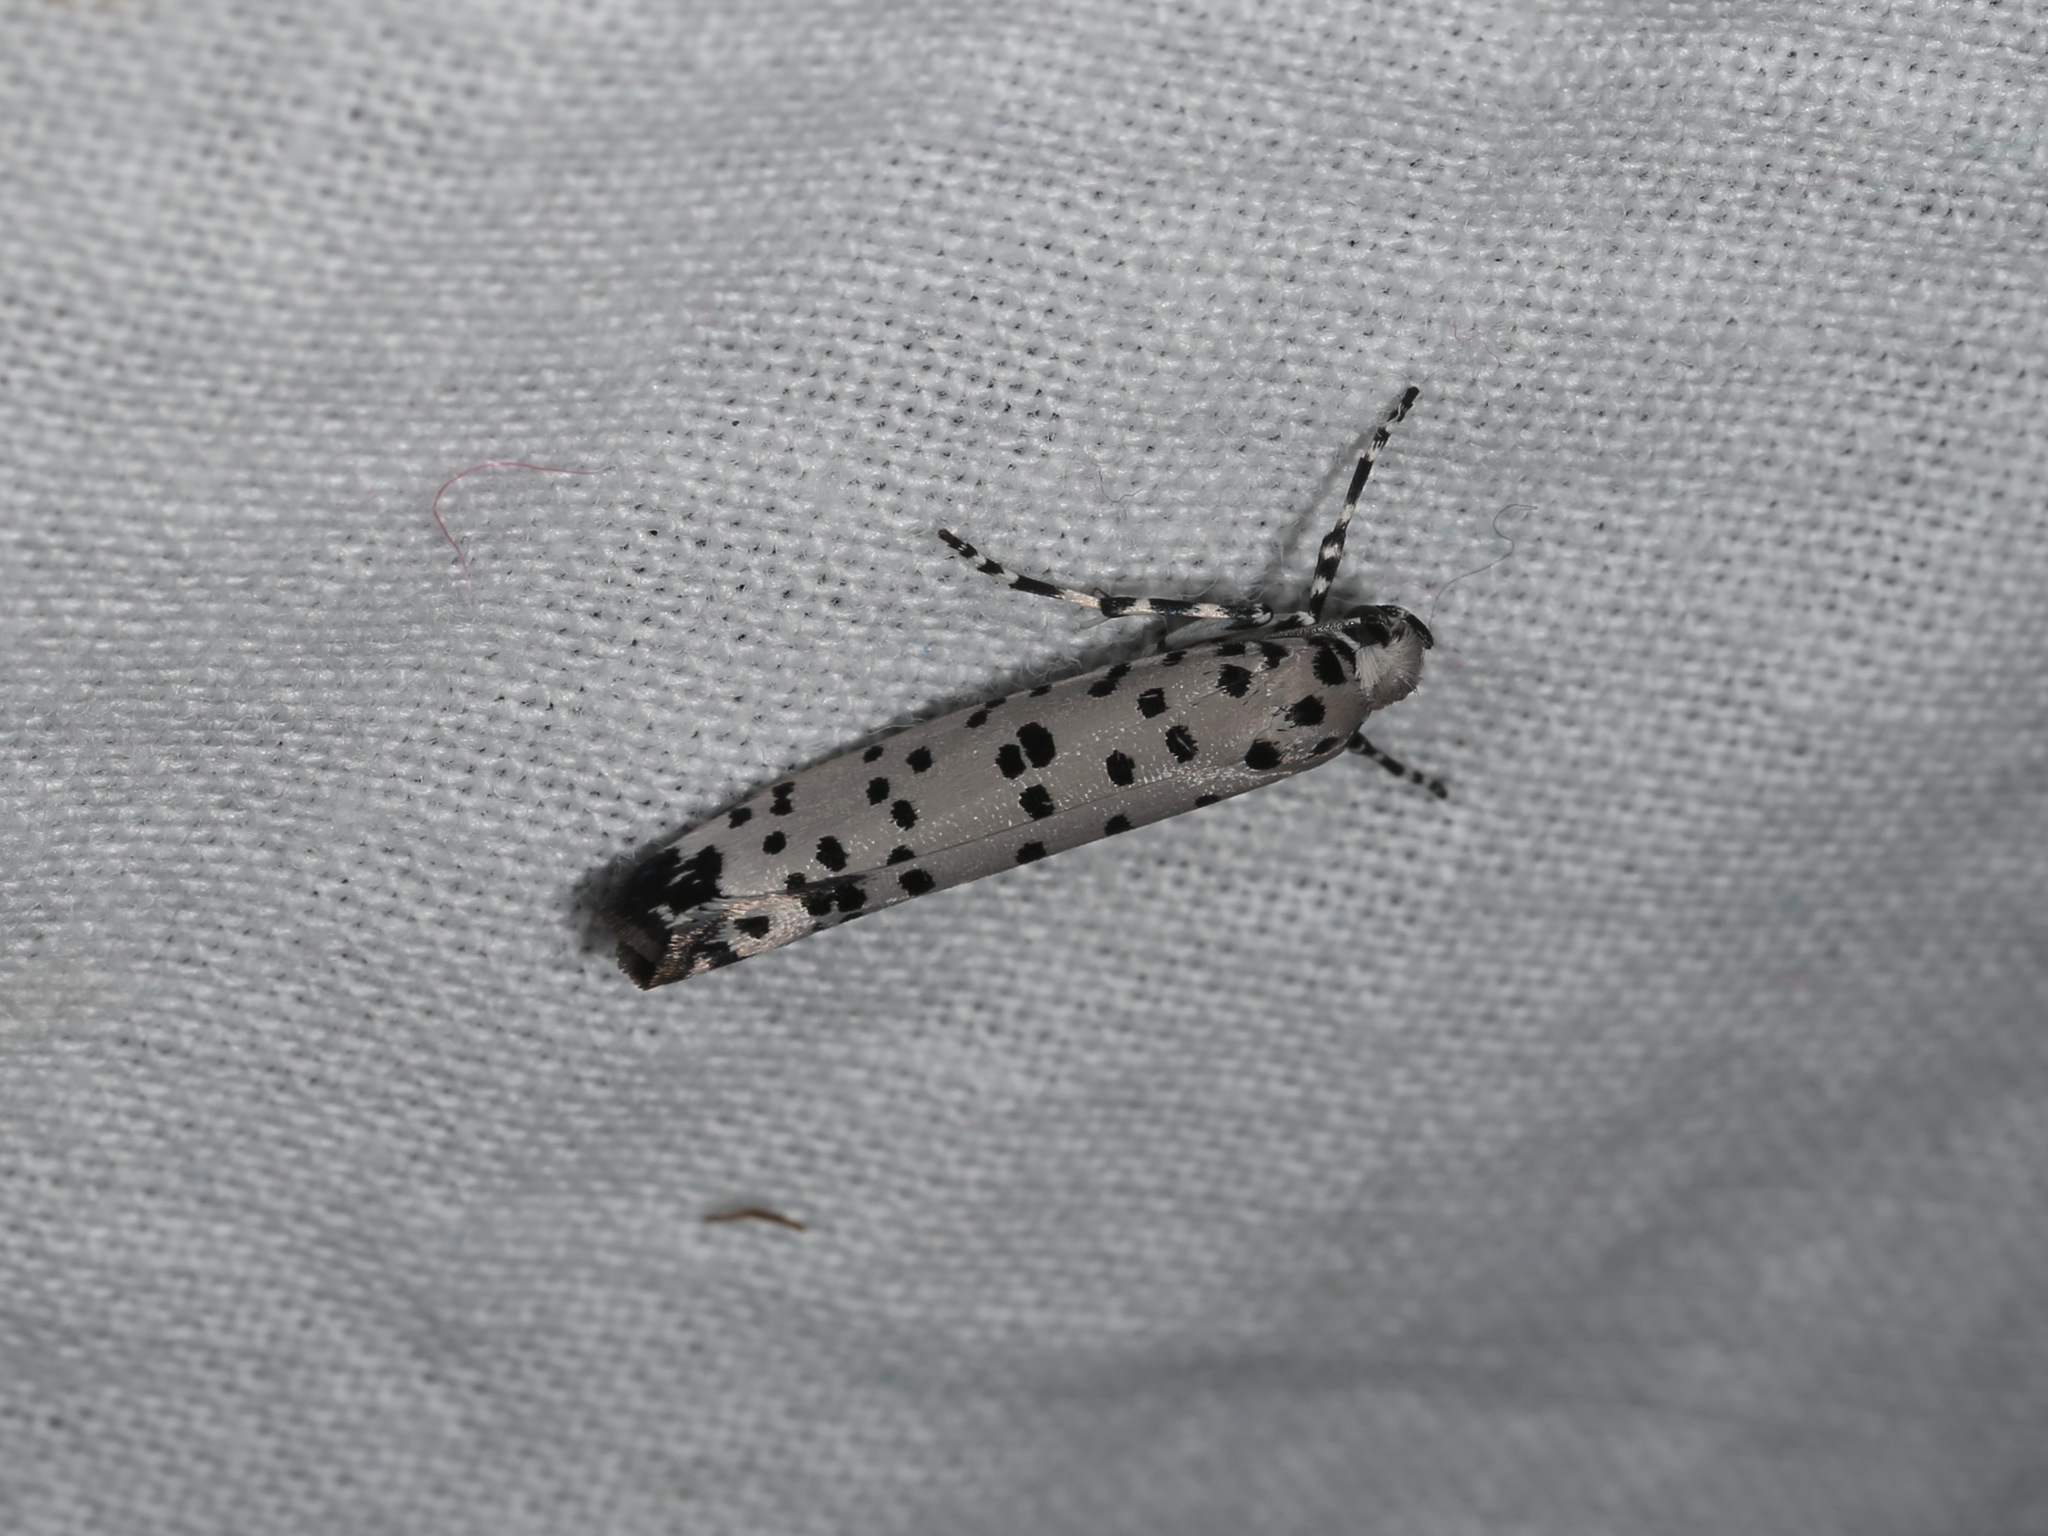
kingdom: Animalia
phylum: Arthropoda
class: Insecta
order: Lepidoptera
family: Yponomeutidae
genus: Yponomeuta
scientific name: Yponomeuta internellus
